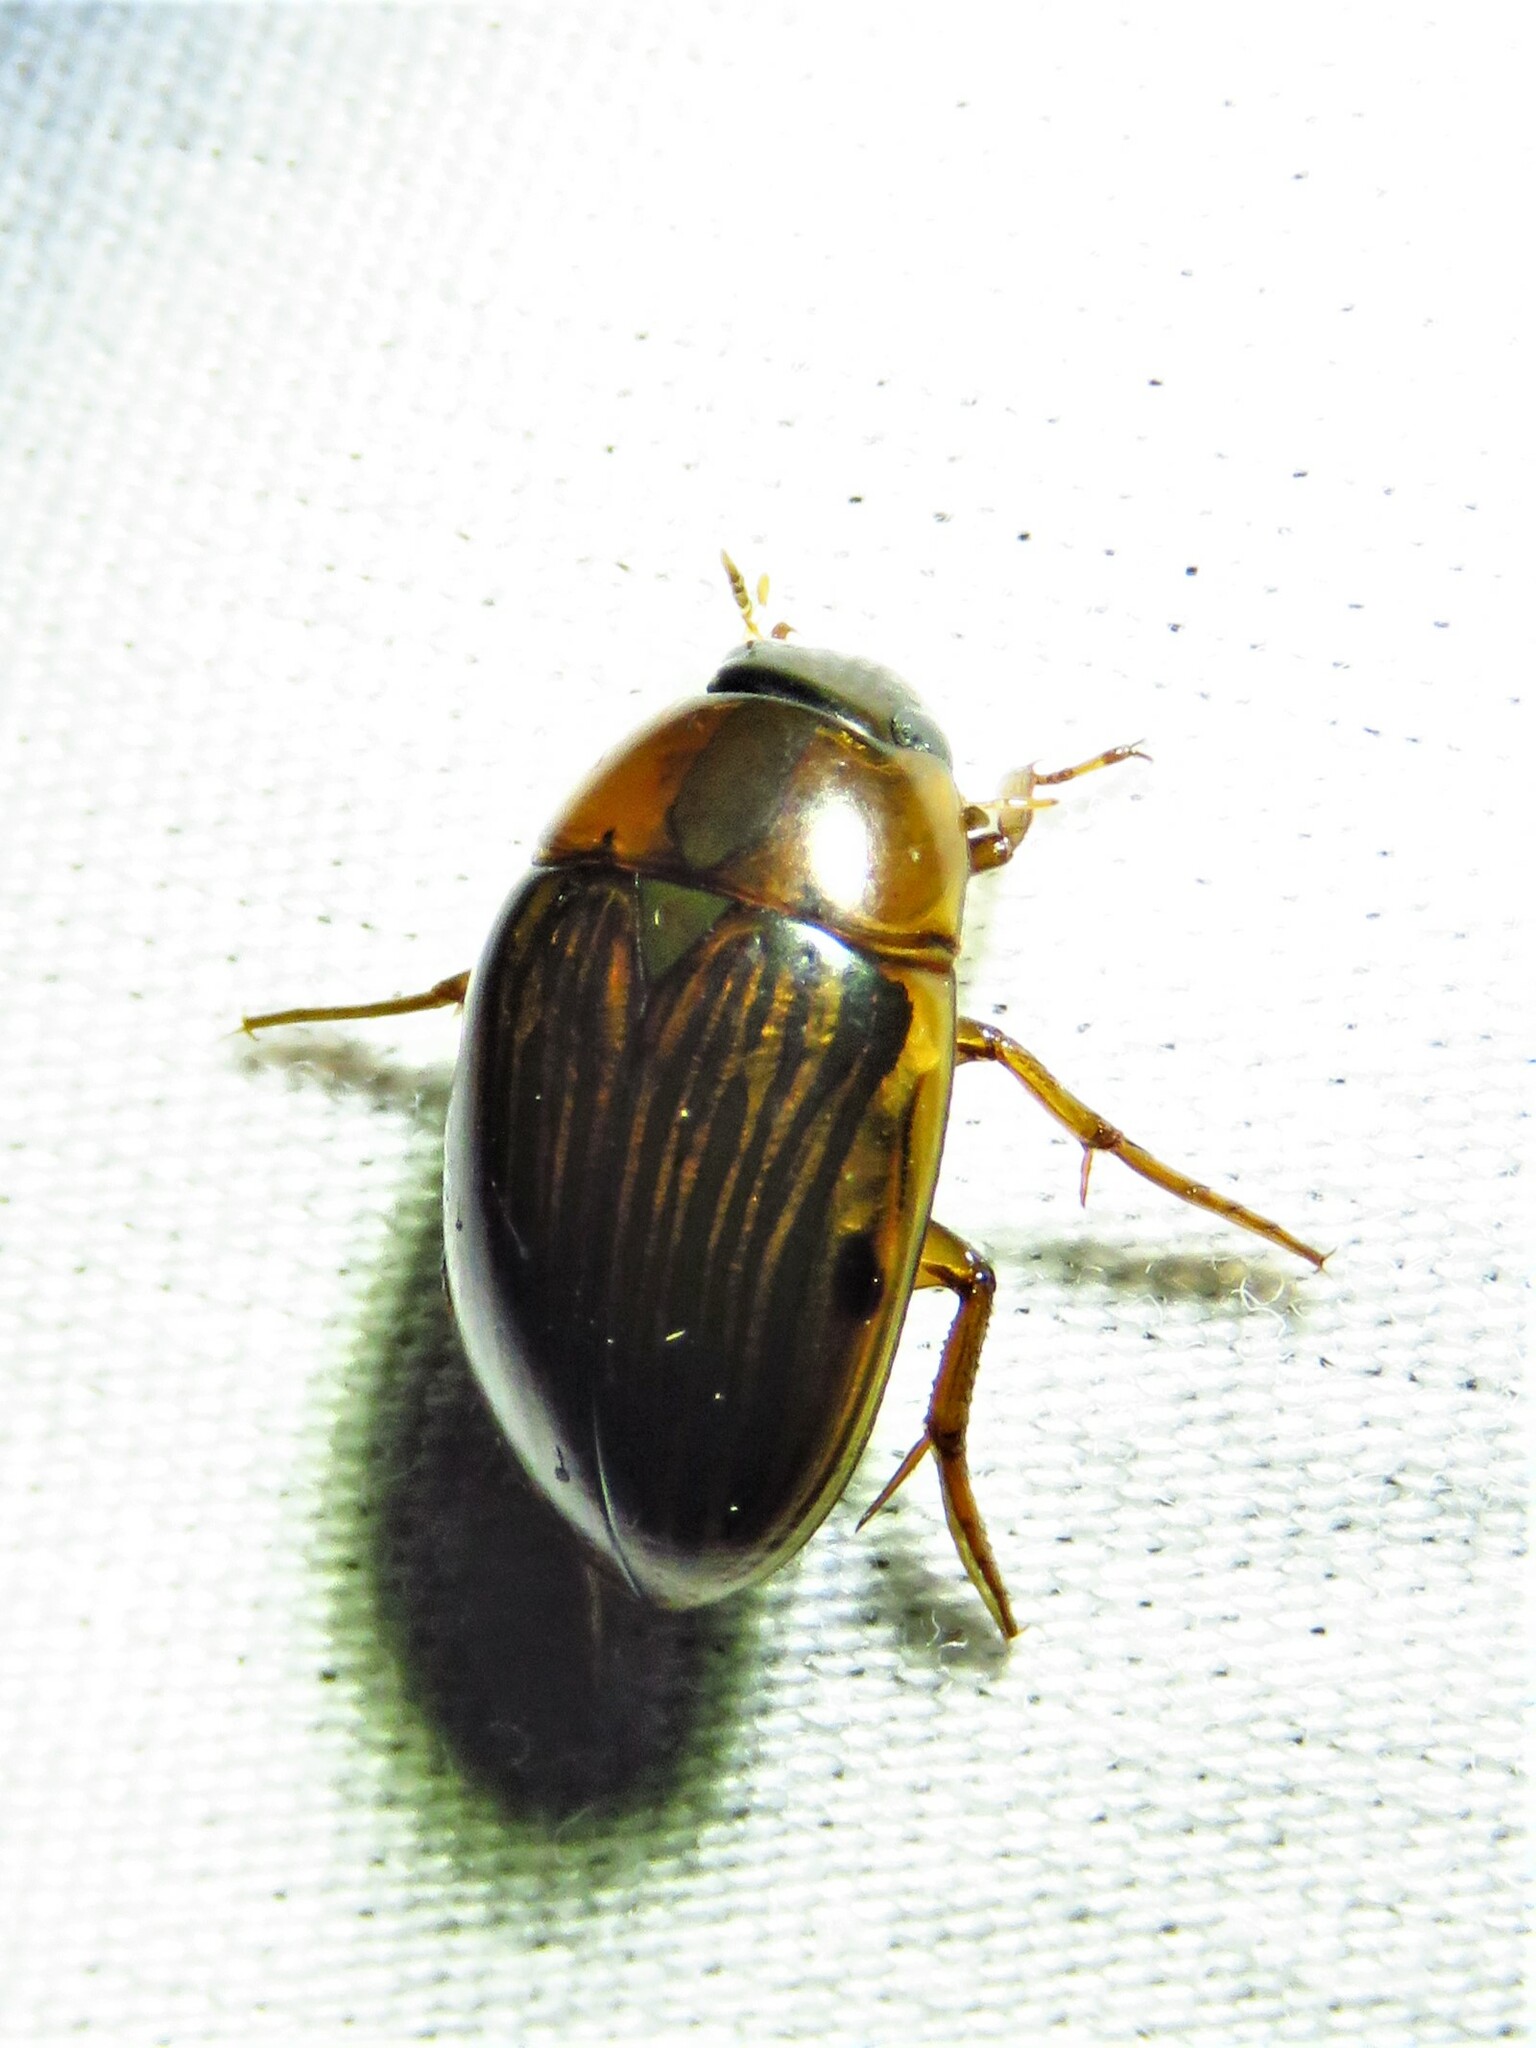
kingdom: Animalia
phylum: Arthropoda
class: Insecta
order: Coleoptera
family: Hydrophilidae
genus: Tropisternus
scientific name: Tropisternus collaris
